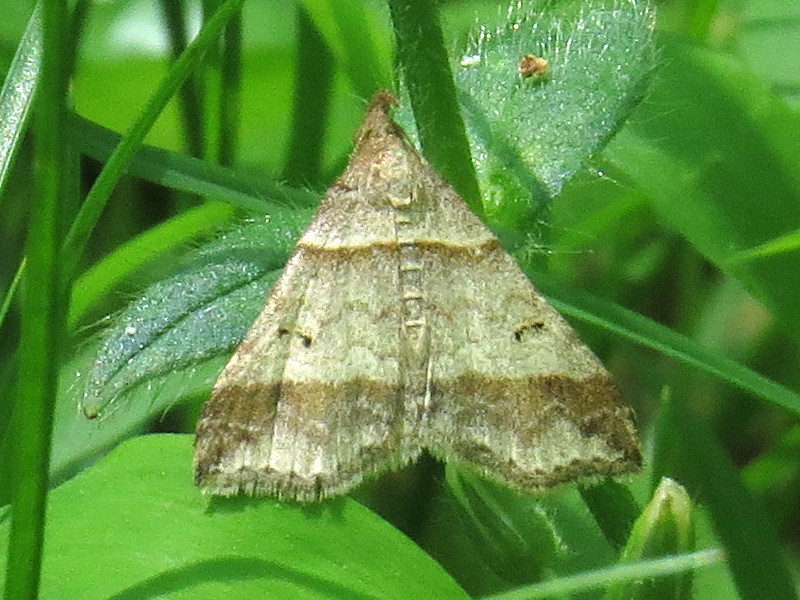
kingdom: Animalia
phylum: Arthropoda
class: Insecta
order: Lepidoptera
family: Erebidae
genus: Phaeolita
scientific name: Phaeolita pyramusalis
